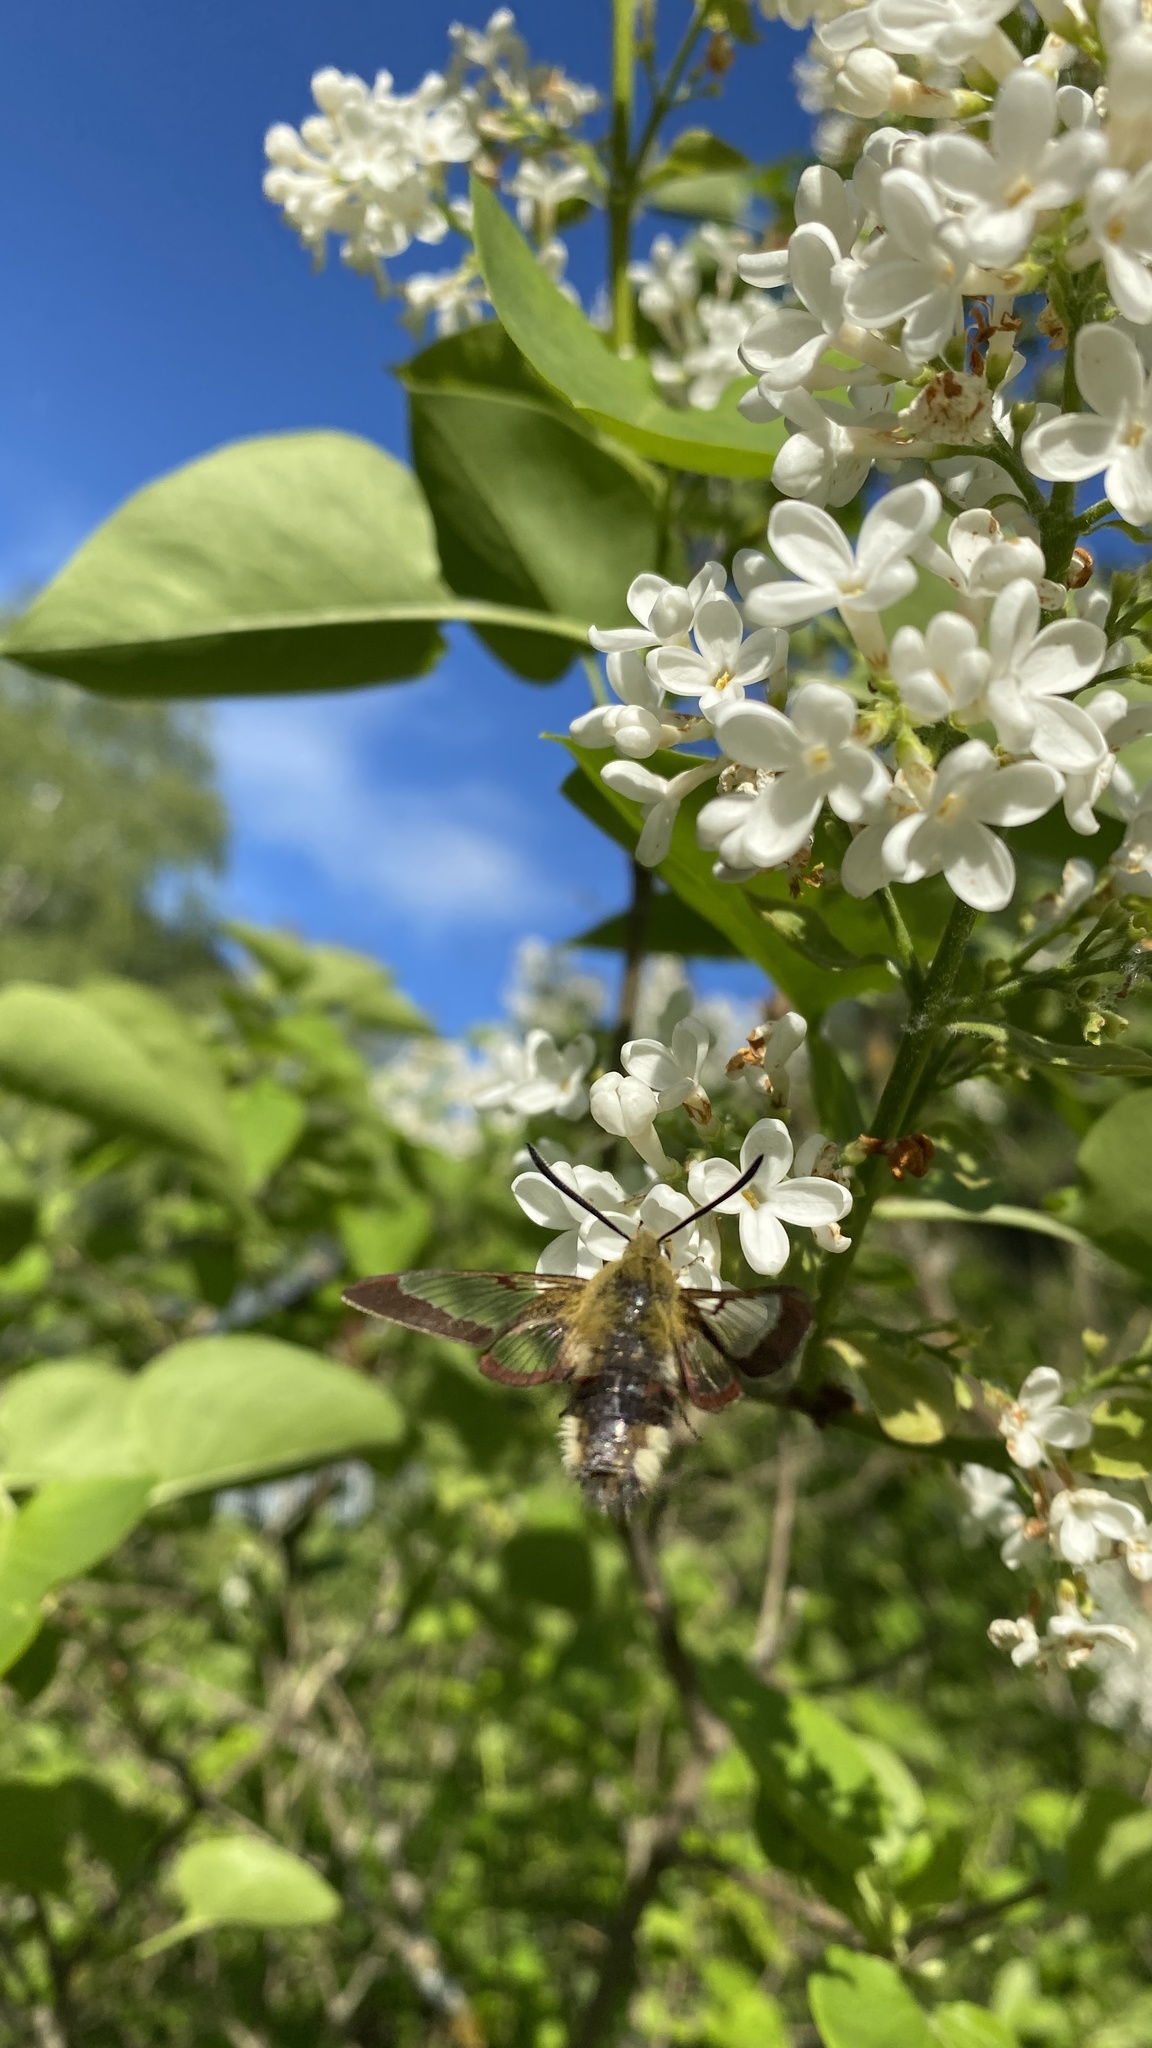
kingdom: Animalia
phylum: Arthropoda
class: Insecta
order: Lepidoptera
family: Sphingidae
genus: Hemaris
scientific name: Hemaris fuciformis
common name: Broad-bordered bee hawk-moth
